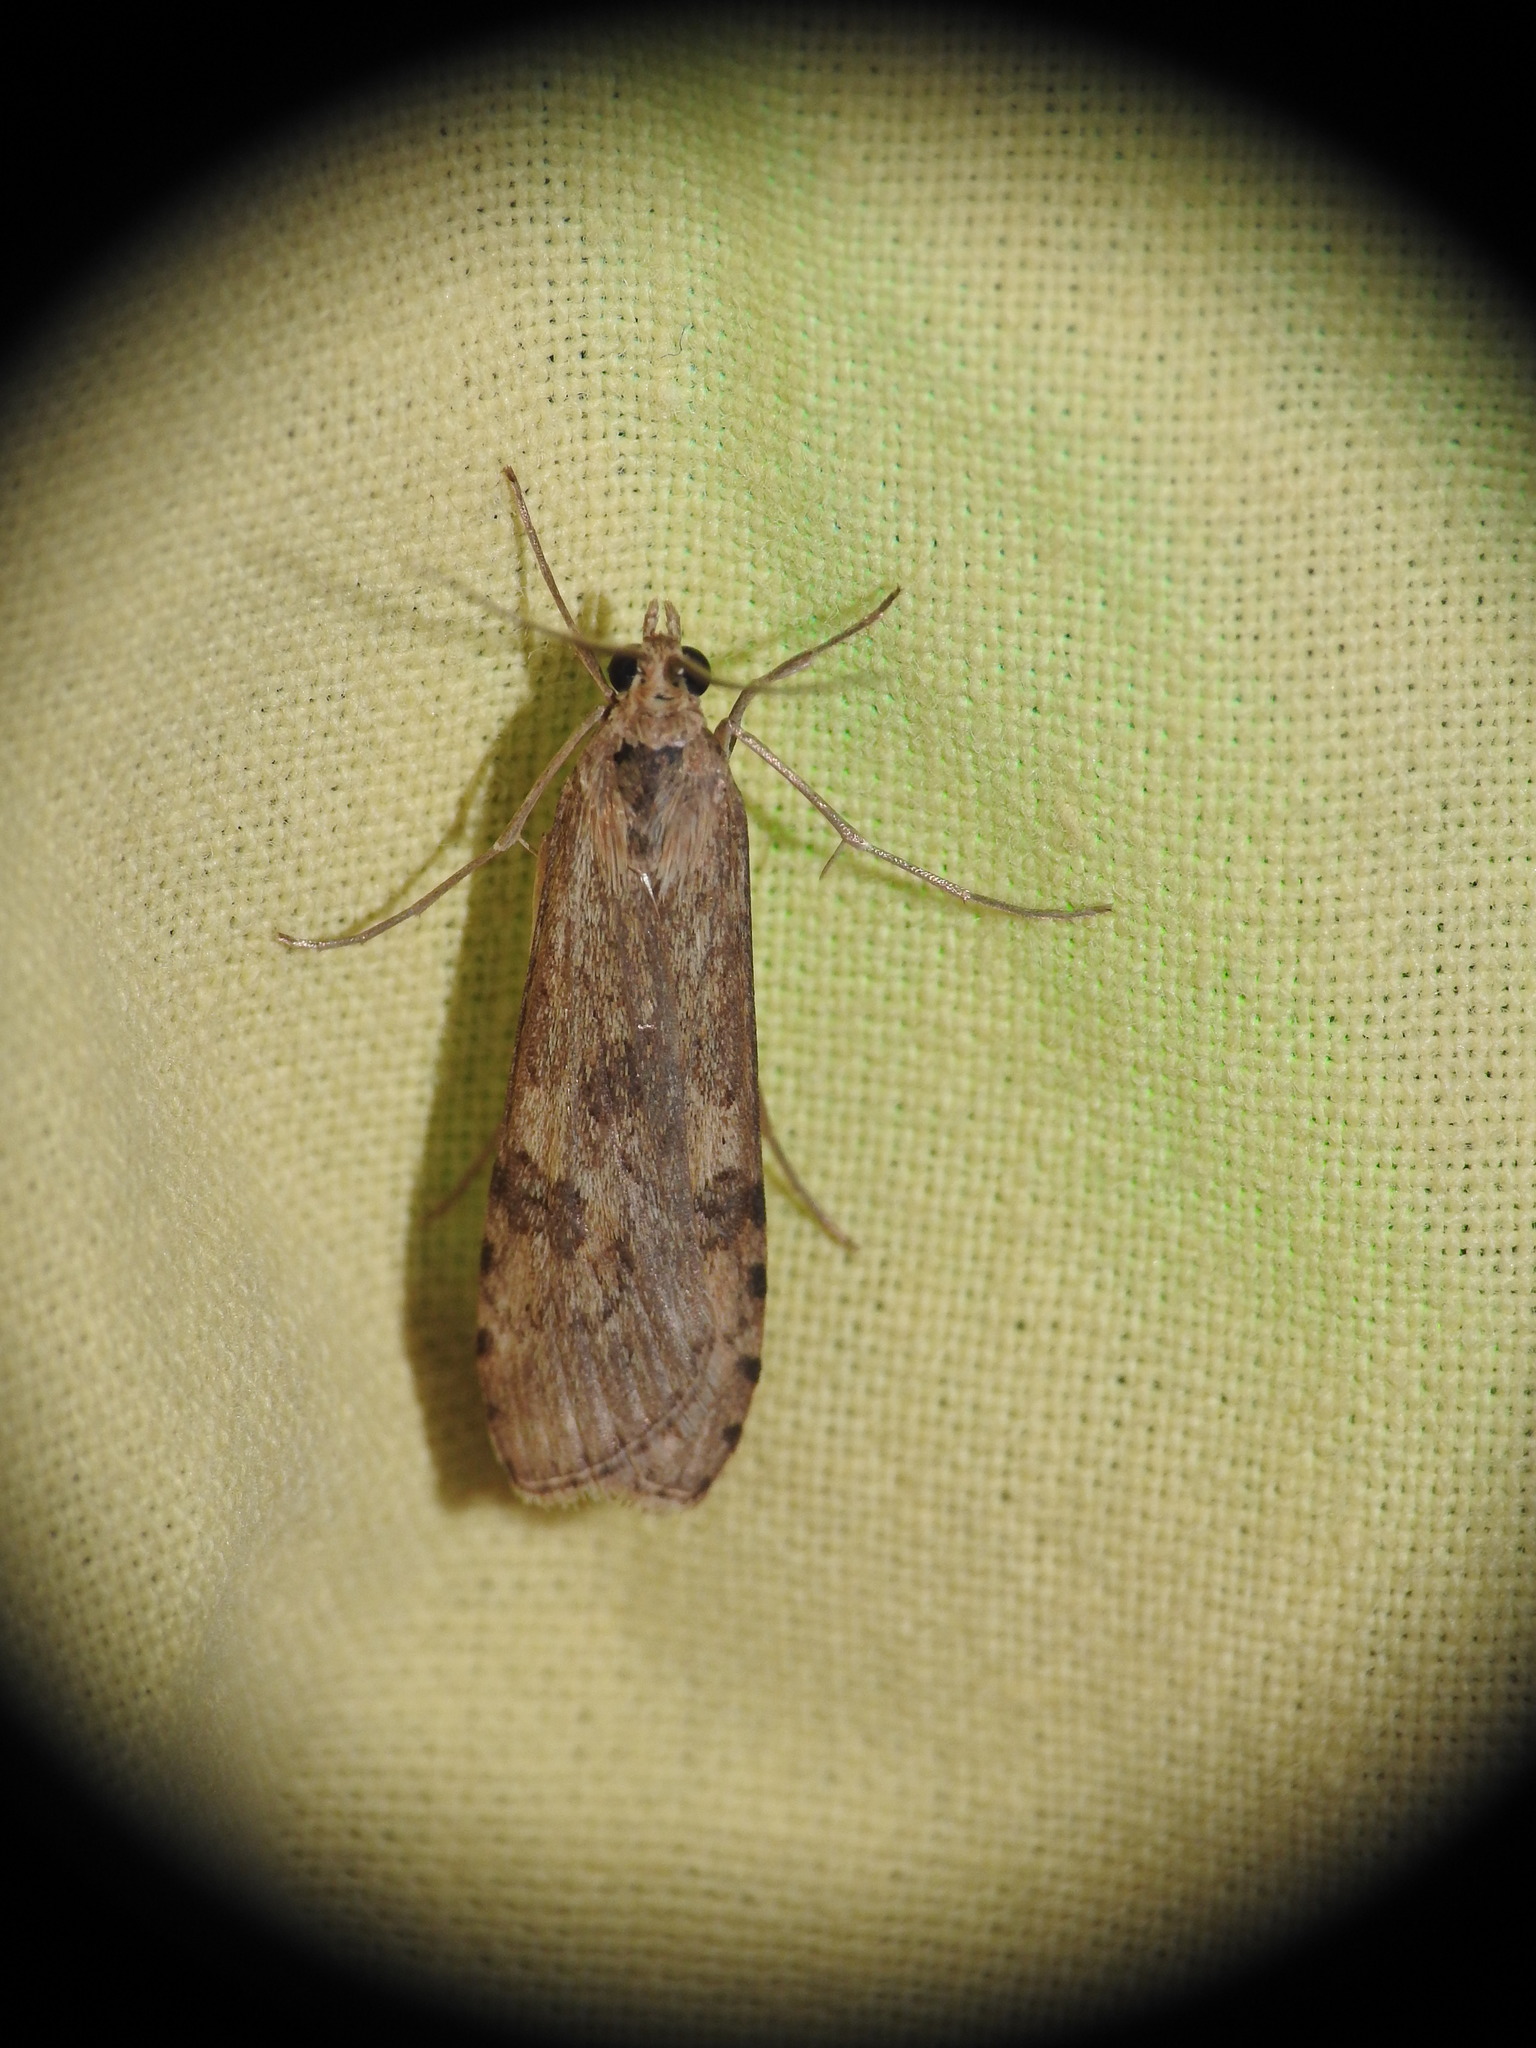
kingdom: Animalia
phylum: Arthropoda
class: Insecta
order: Lepidoptera
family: Crambidae
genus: Nomophila
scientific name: Nomophila noctuella
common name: Rush veneer
